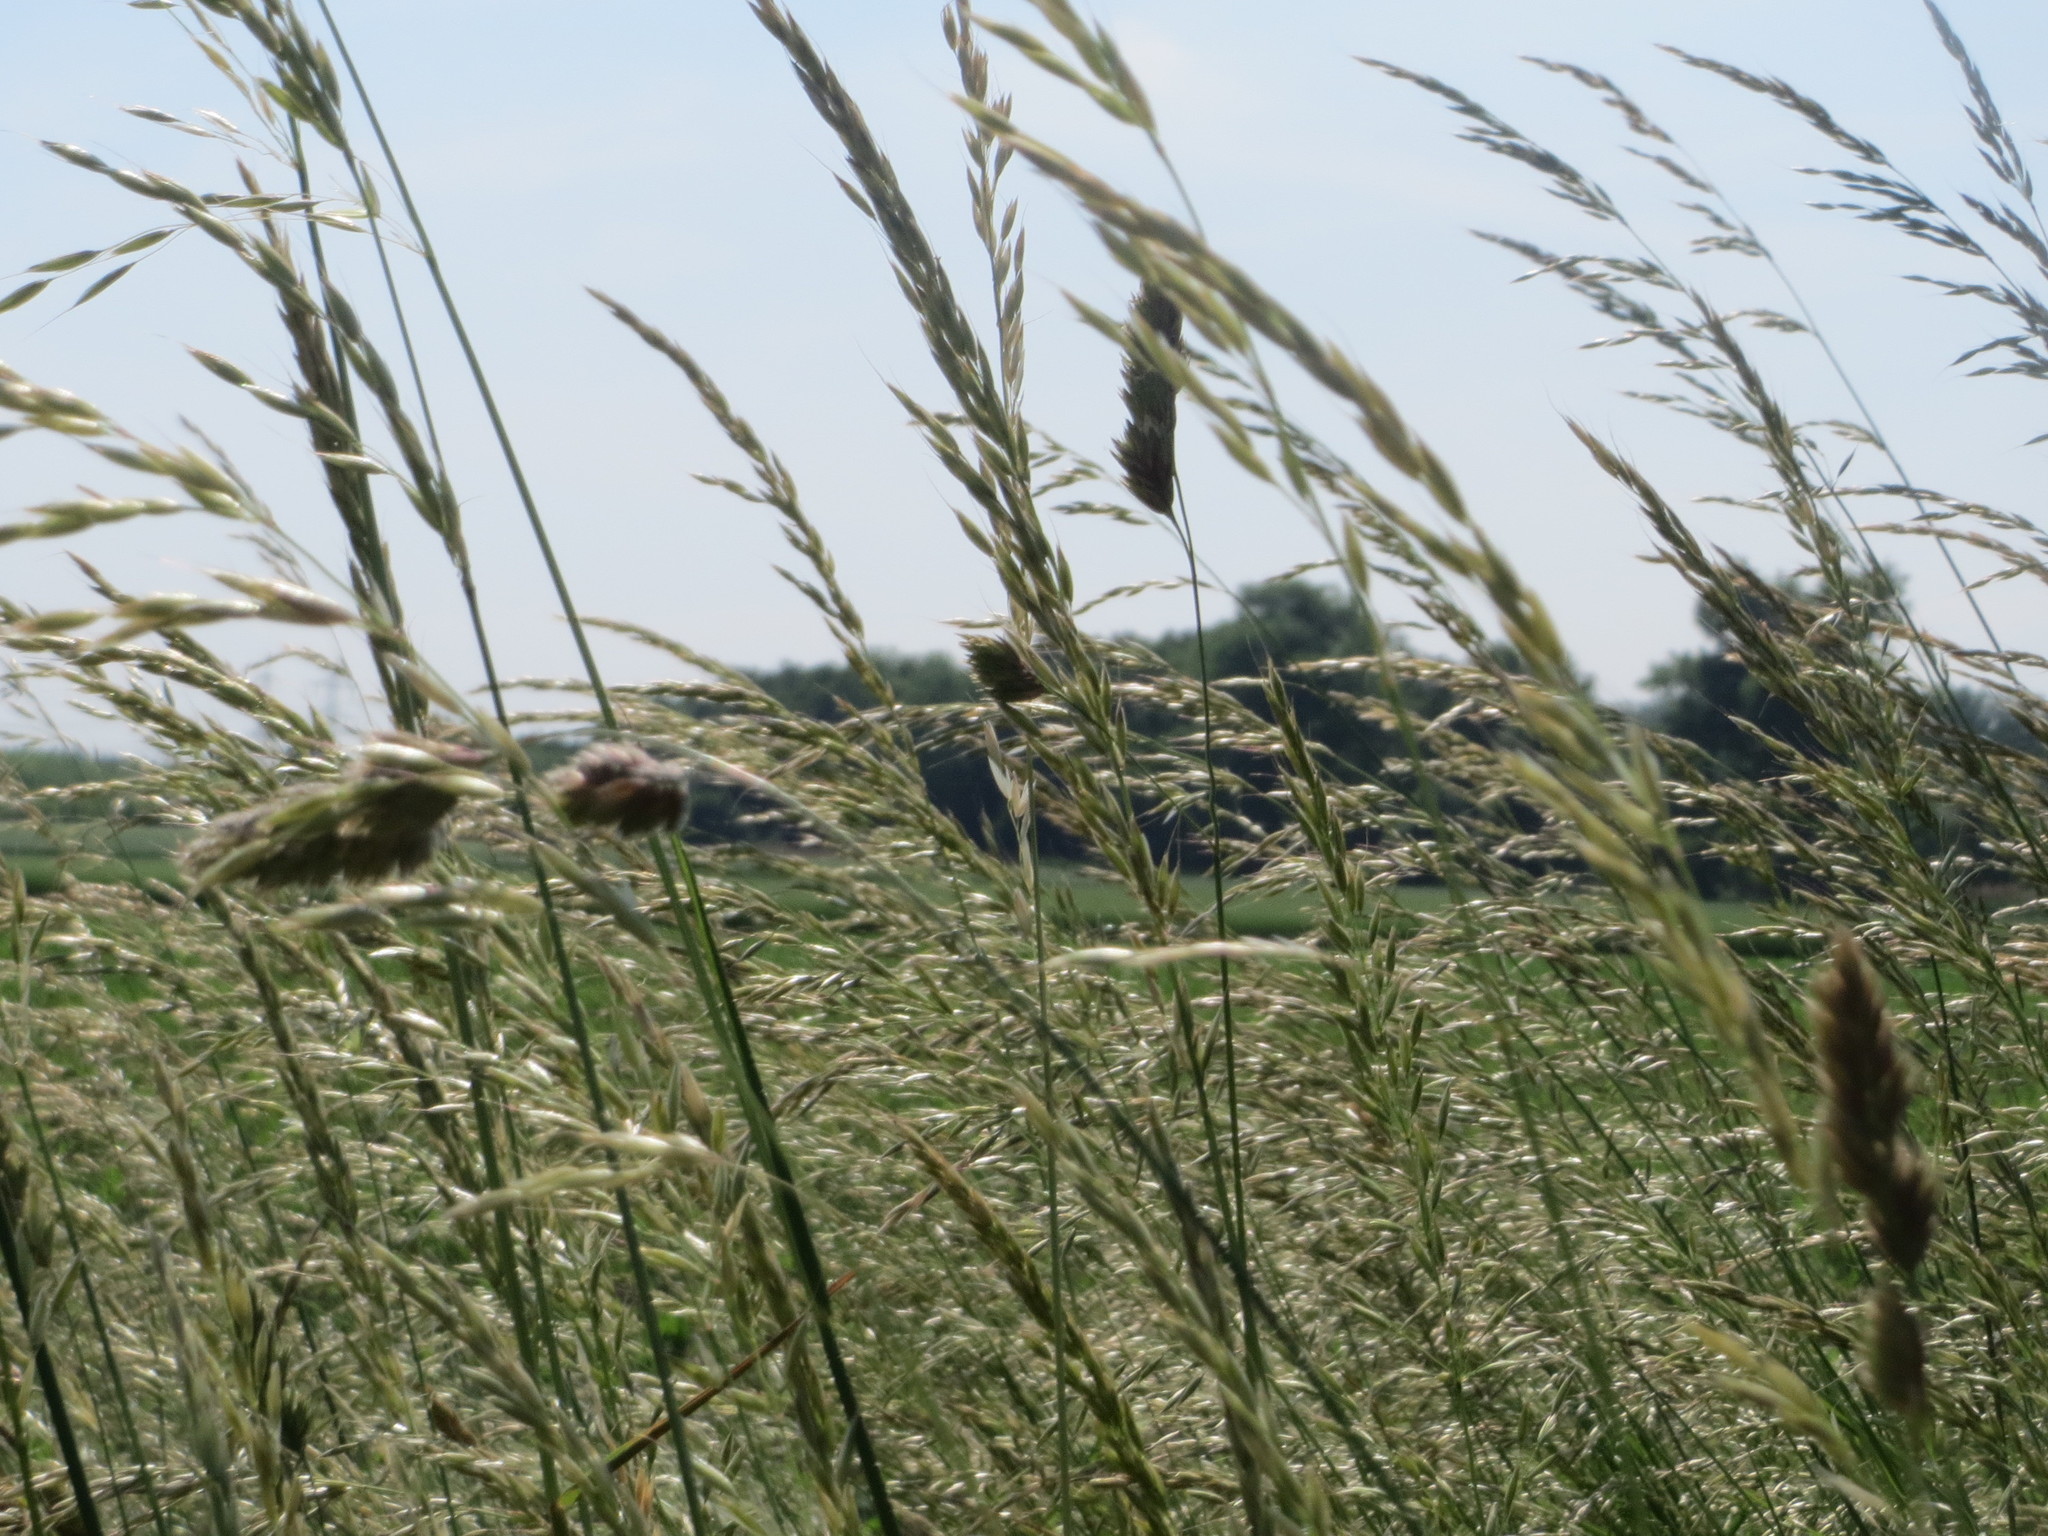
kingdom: Plantae
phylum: Tracheophyta
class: Liliopsida
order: Poales
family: Poaceae
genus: Arrhenatherum
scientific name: Arrhenatherum elatius
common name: Tall oatgrass
